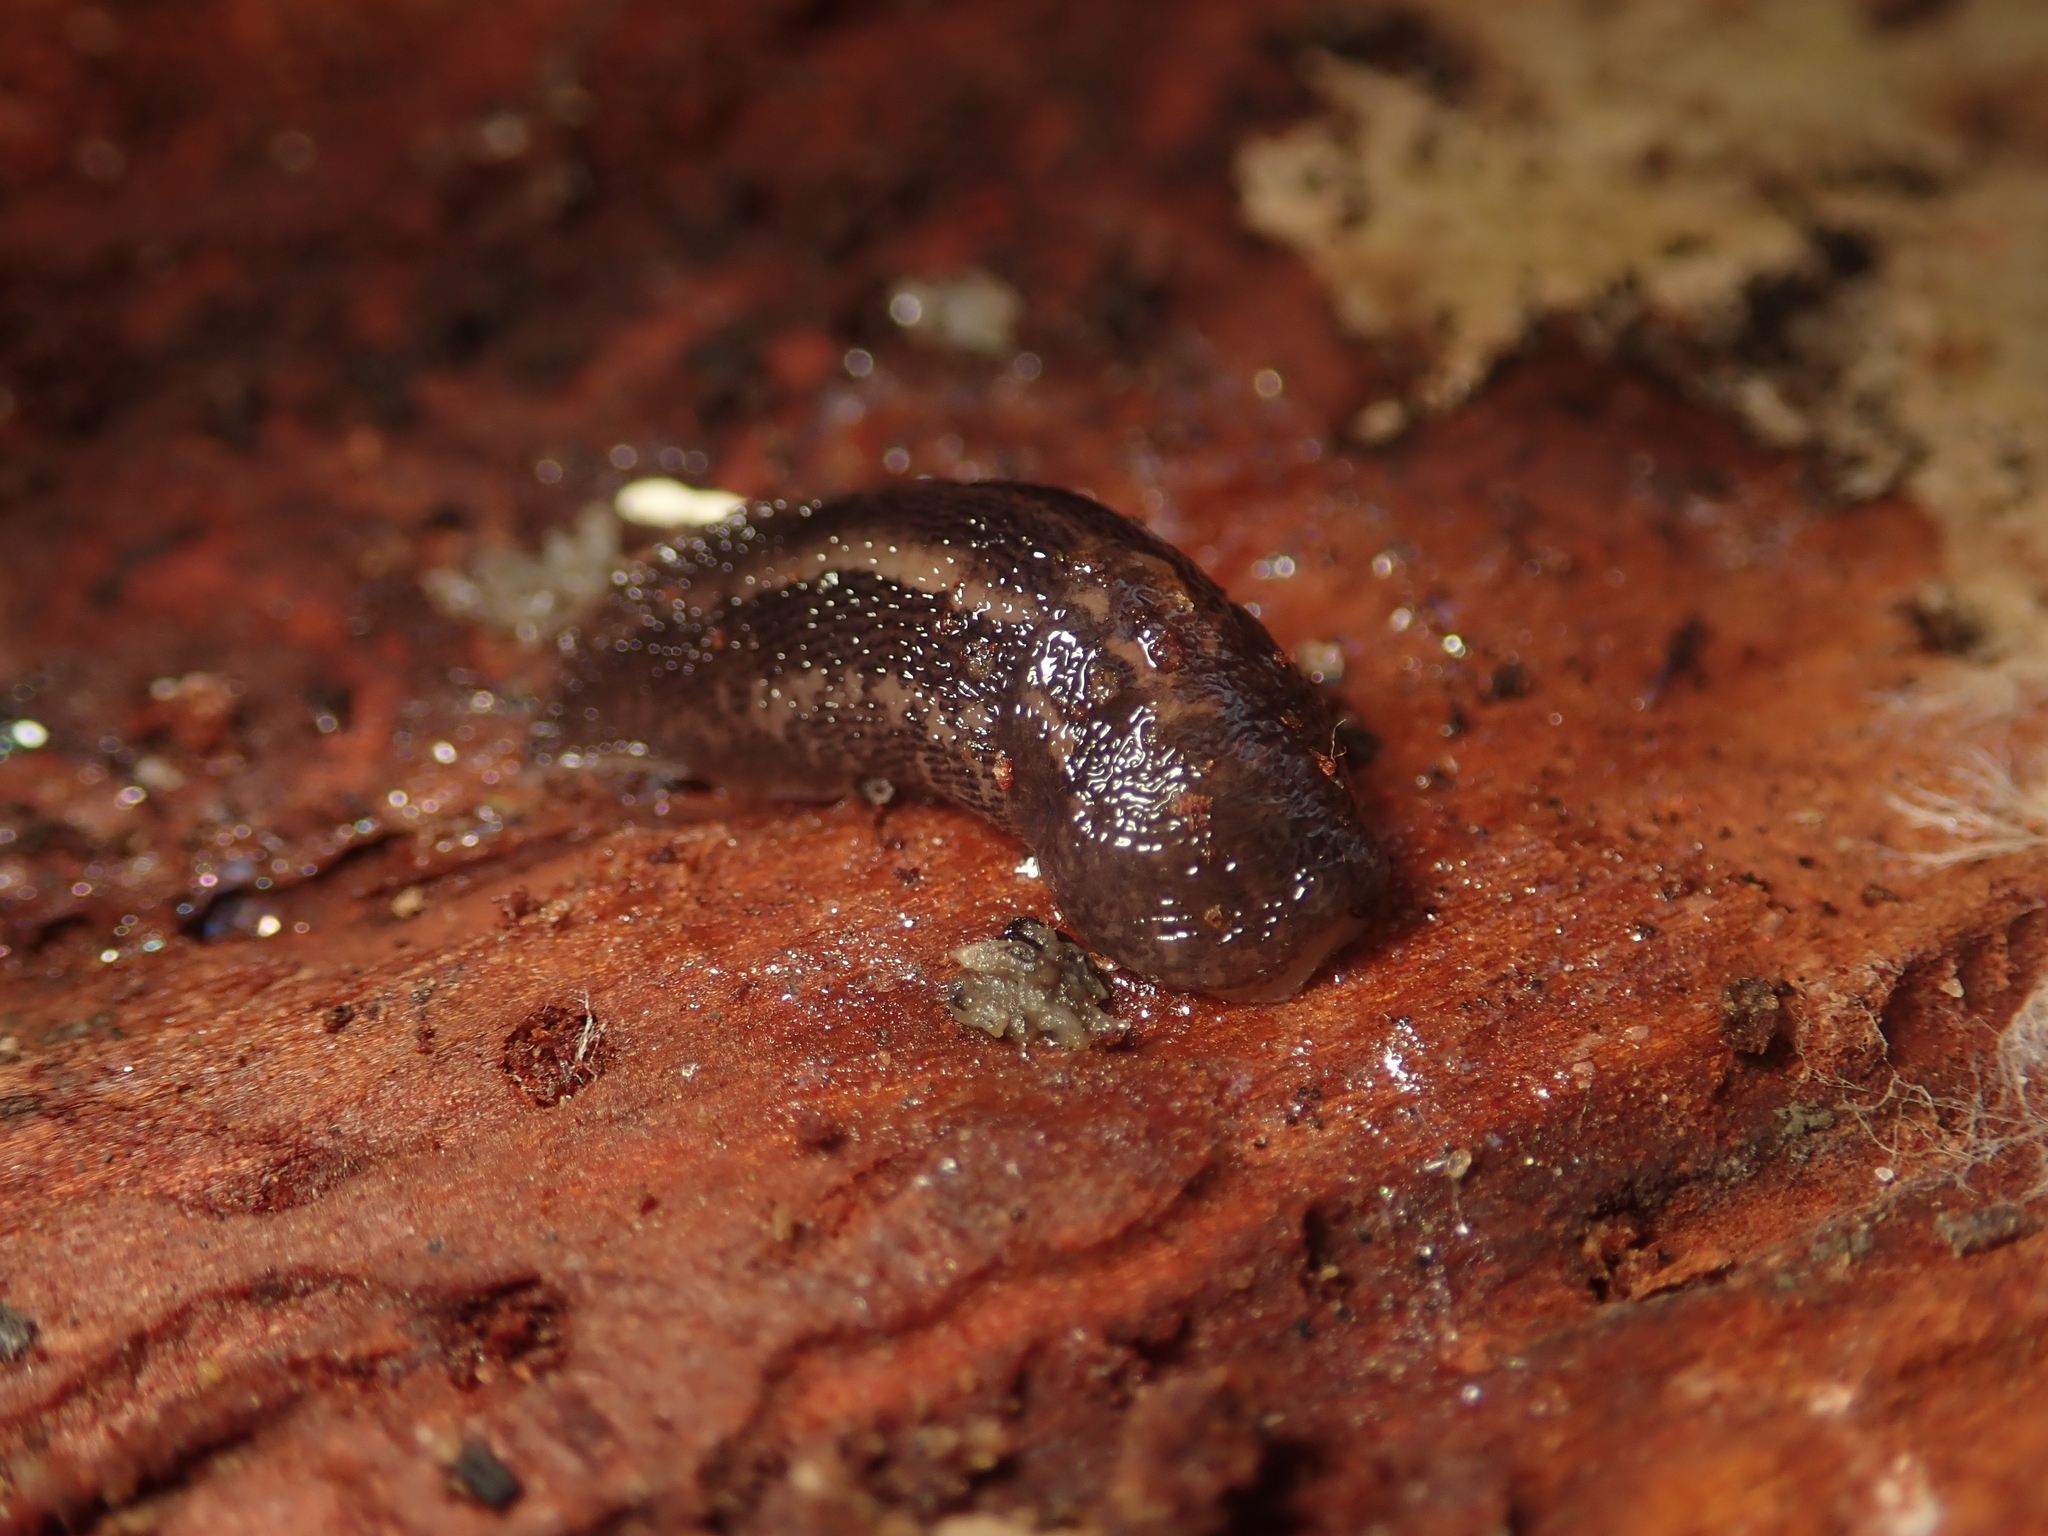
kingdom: Animalia
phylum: Mollusca
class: Gastropoda
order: Stylommatophora
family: Limacidae
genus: Limax
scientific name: Limax maximus
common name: Great grey slug
